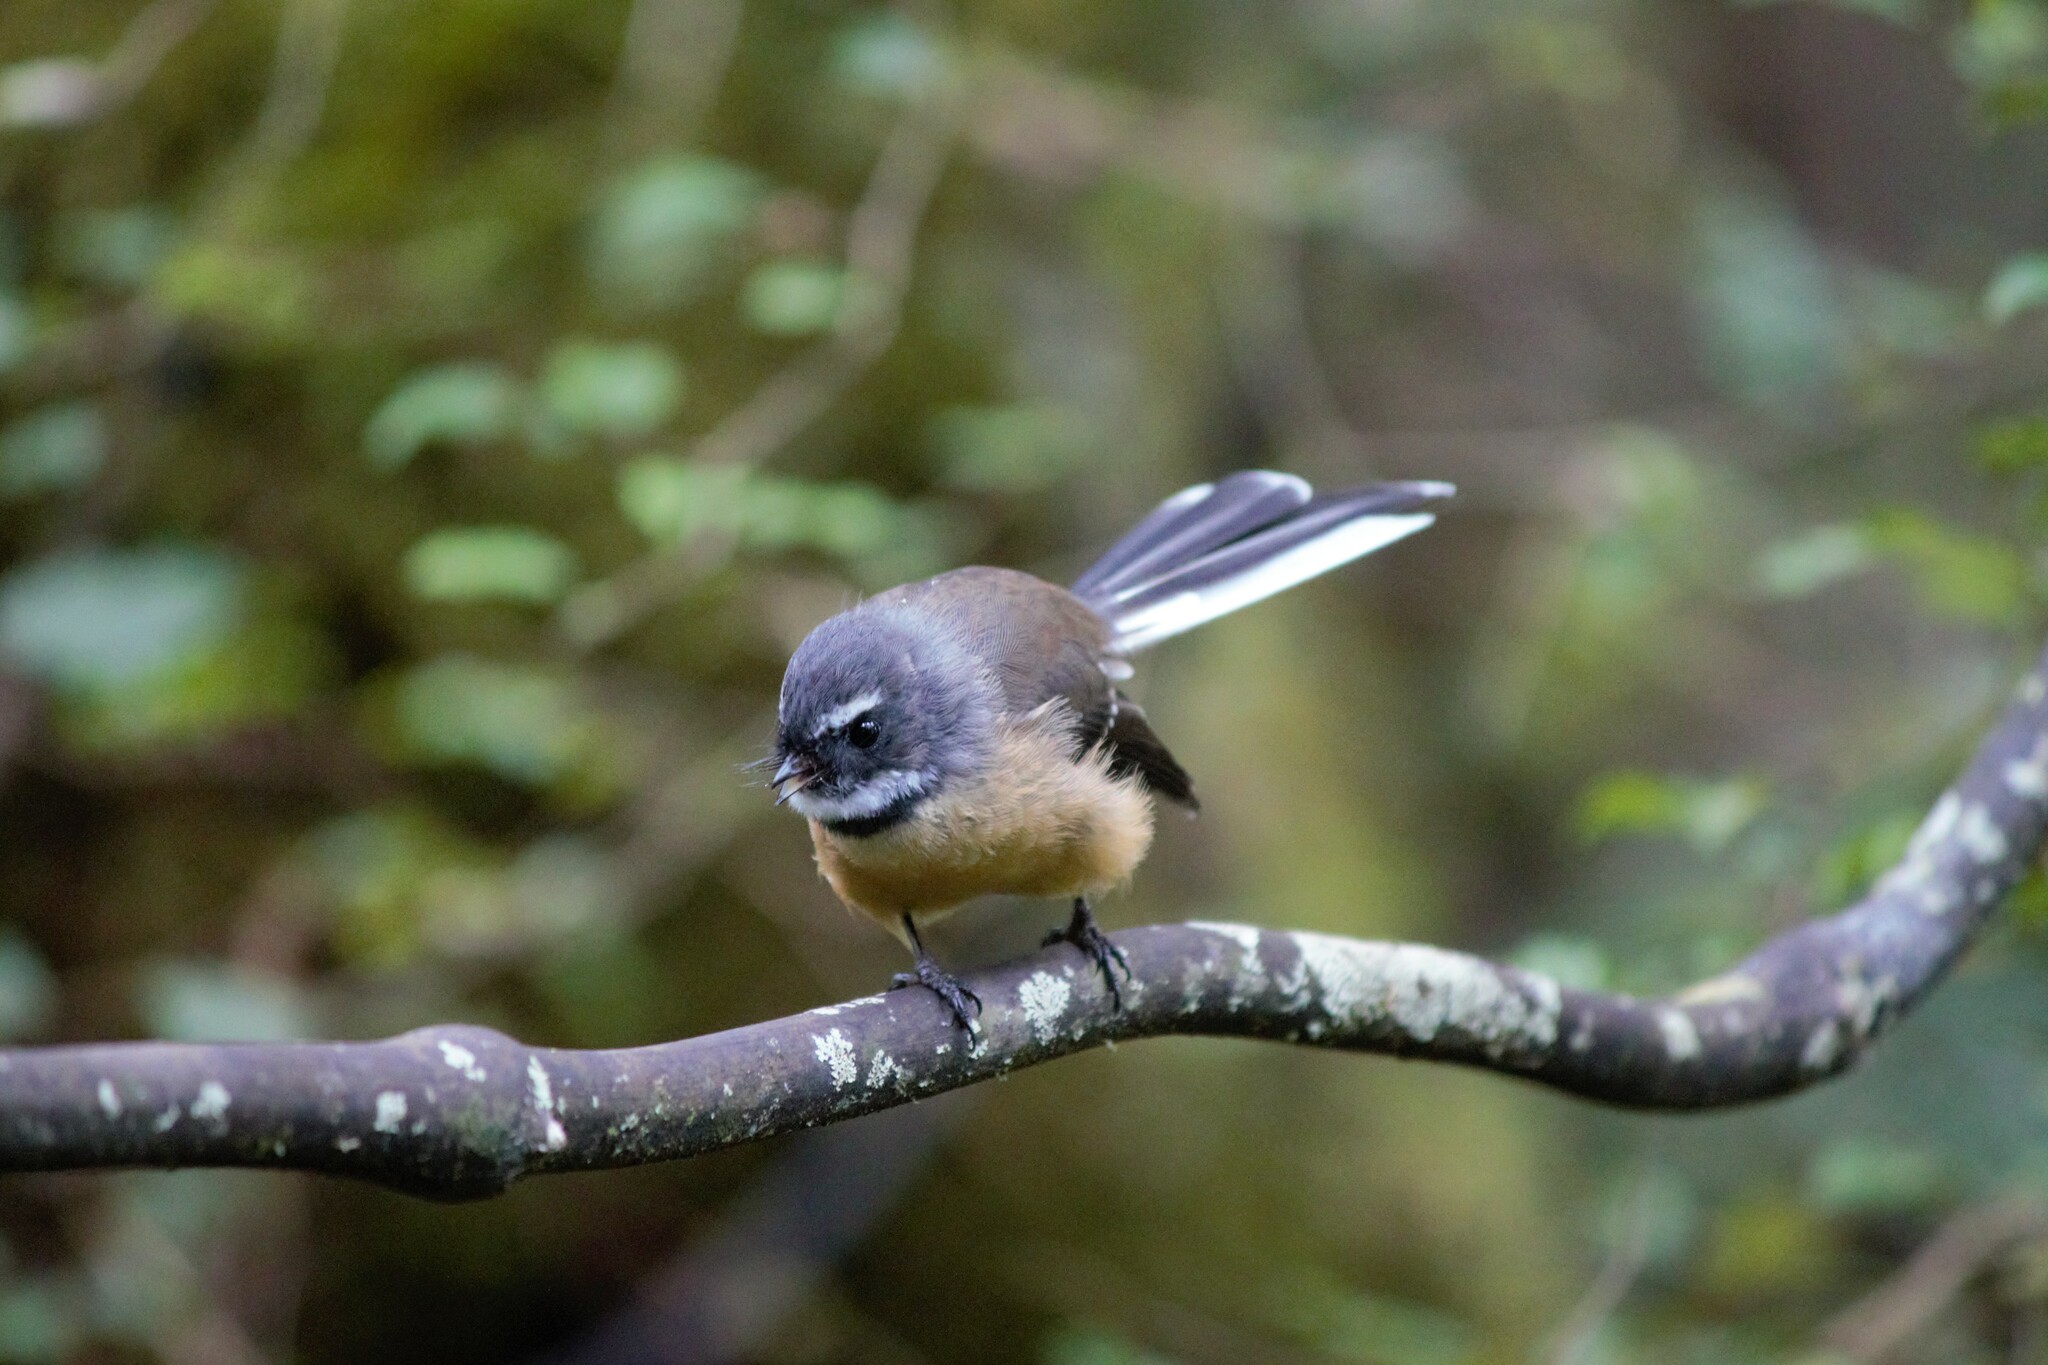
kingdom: Animalia
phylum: Chordata
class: Aves
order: Passeriformes
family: Rhipiduridae
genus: Rhipidura
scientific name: Rhipidura fuliginosa
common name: New zealand fantail
